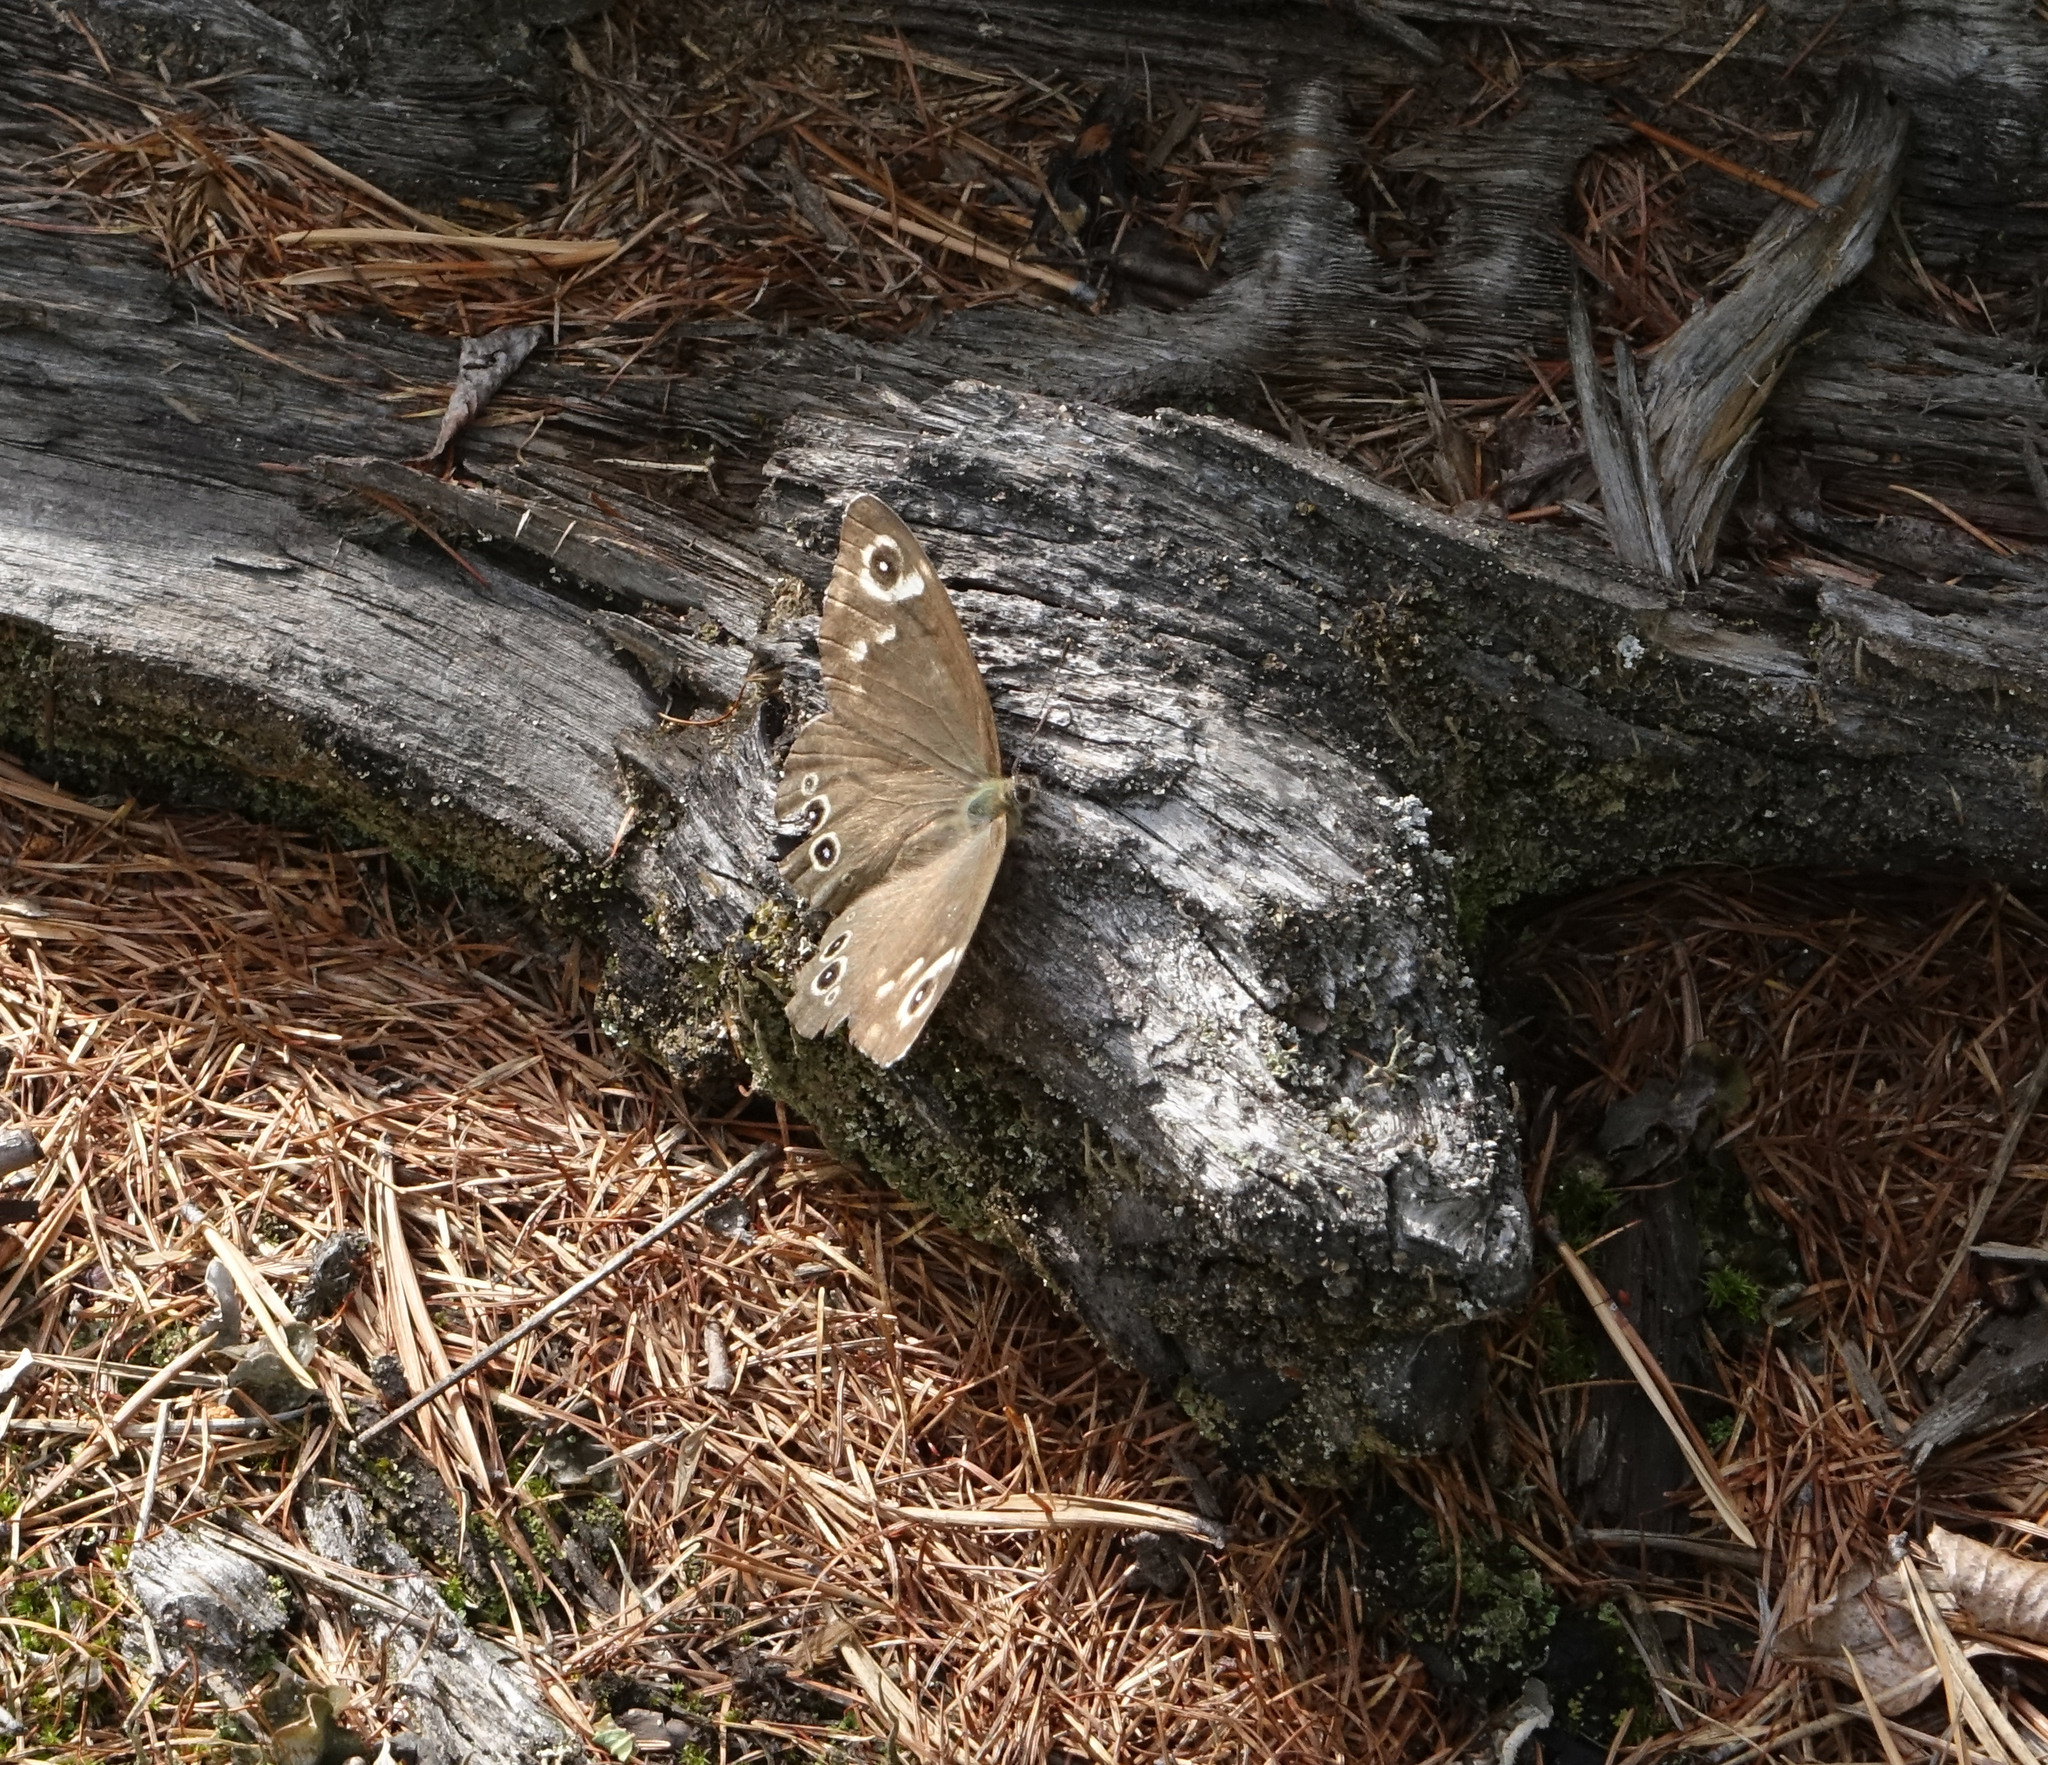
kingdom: Animalia
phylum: Arthropoda
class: Insecta
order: Lepidoptera
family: Nymphalidae
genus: Pararge
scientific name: Pararge Lasiommata deidamia
